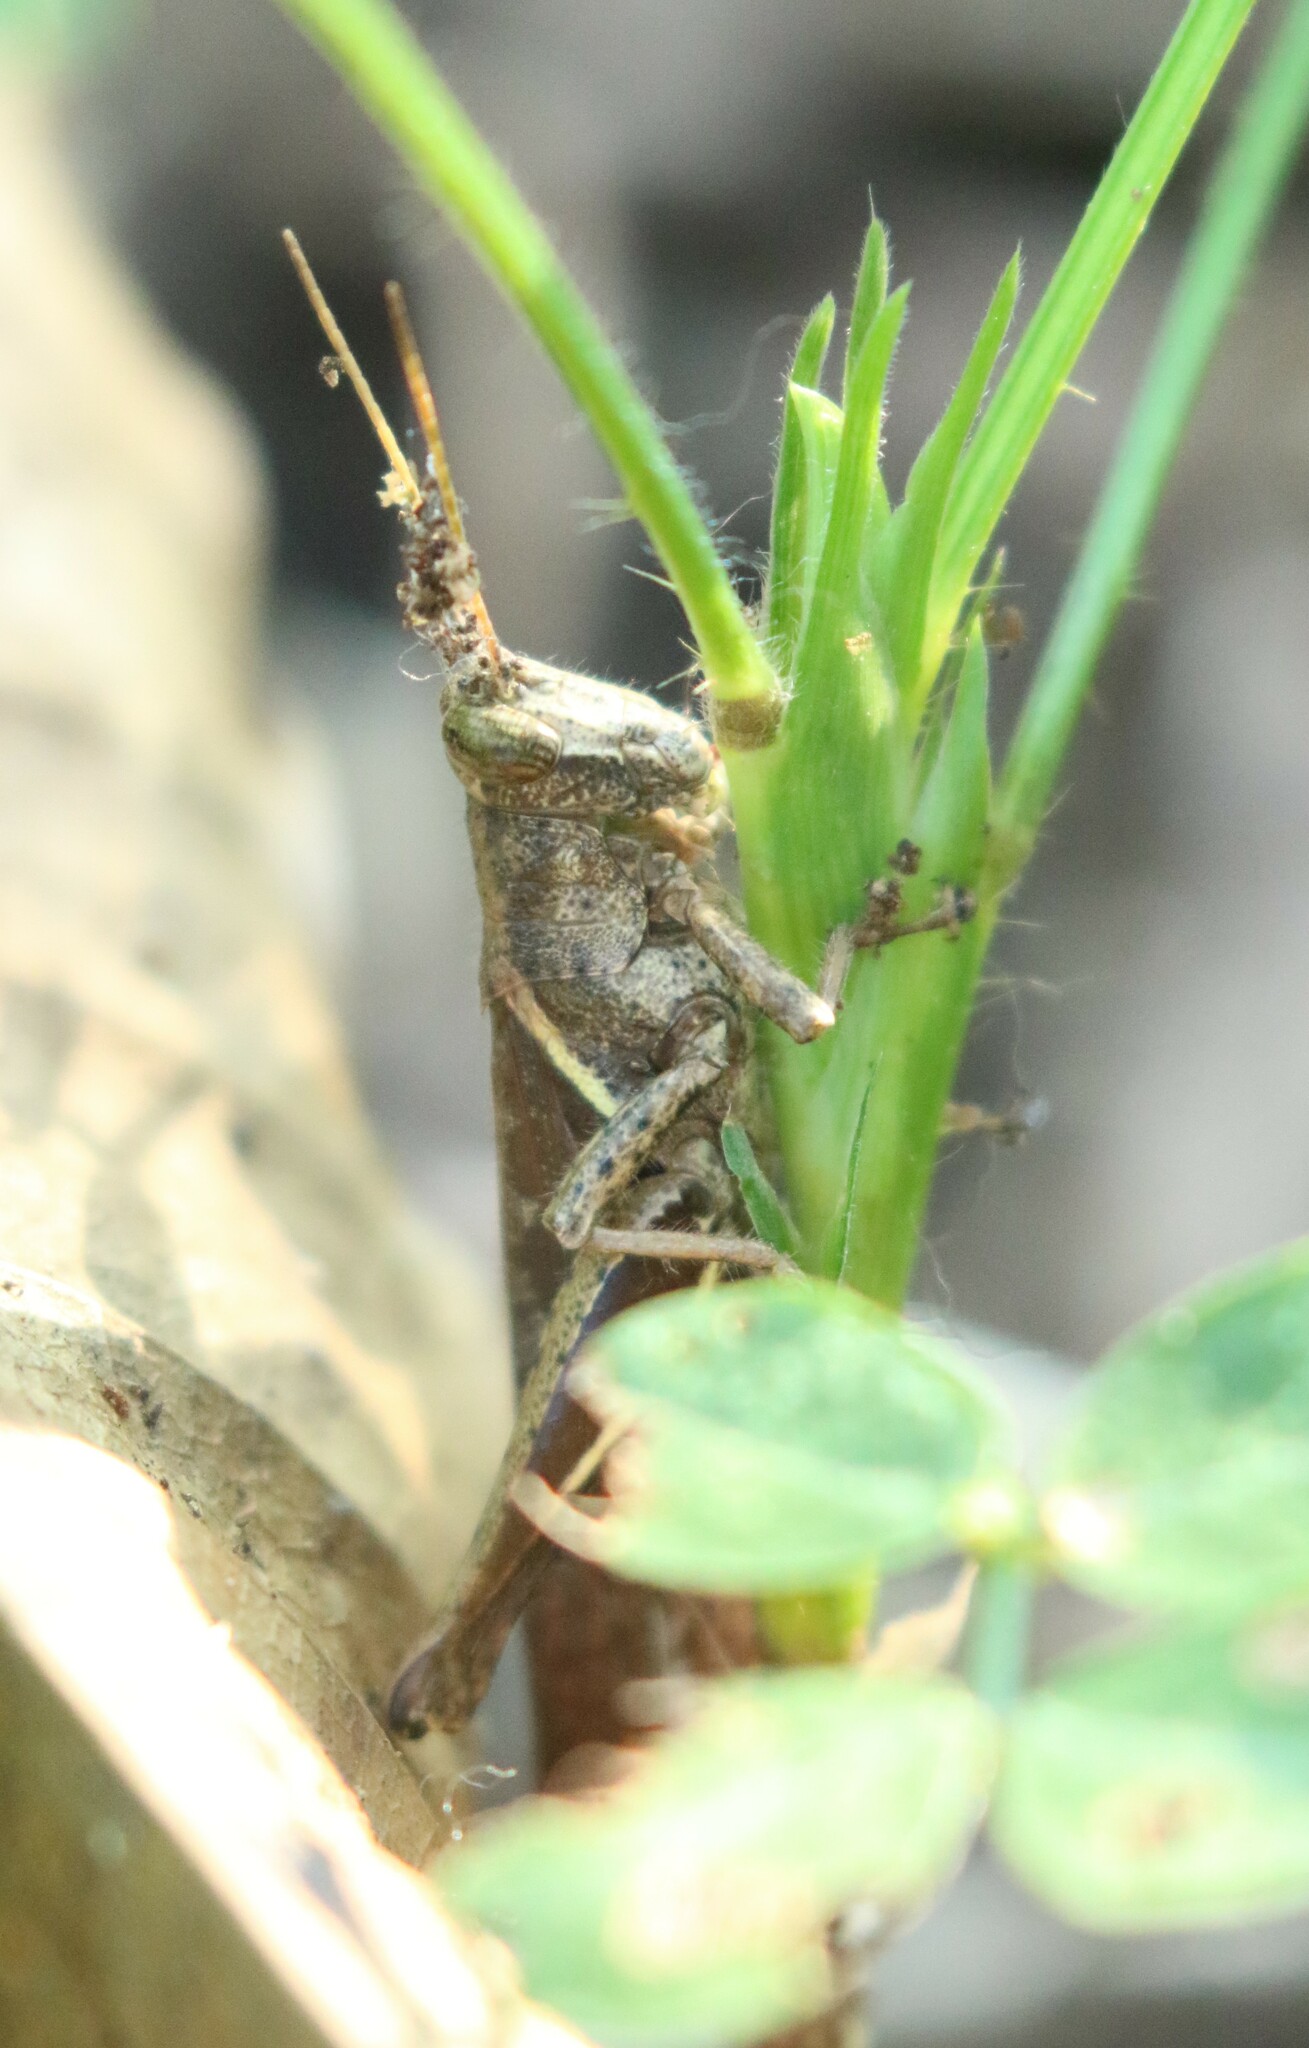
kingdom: Animalia
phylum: Arthropoda
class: Insecta
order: Orthoptera
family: Acrididae
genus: Abracris
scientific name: Abracris flavolineata
